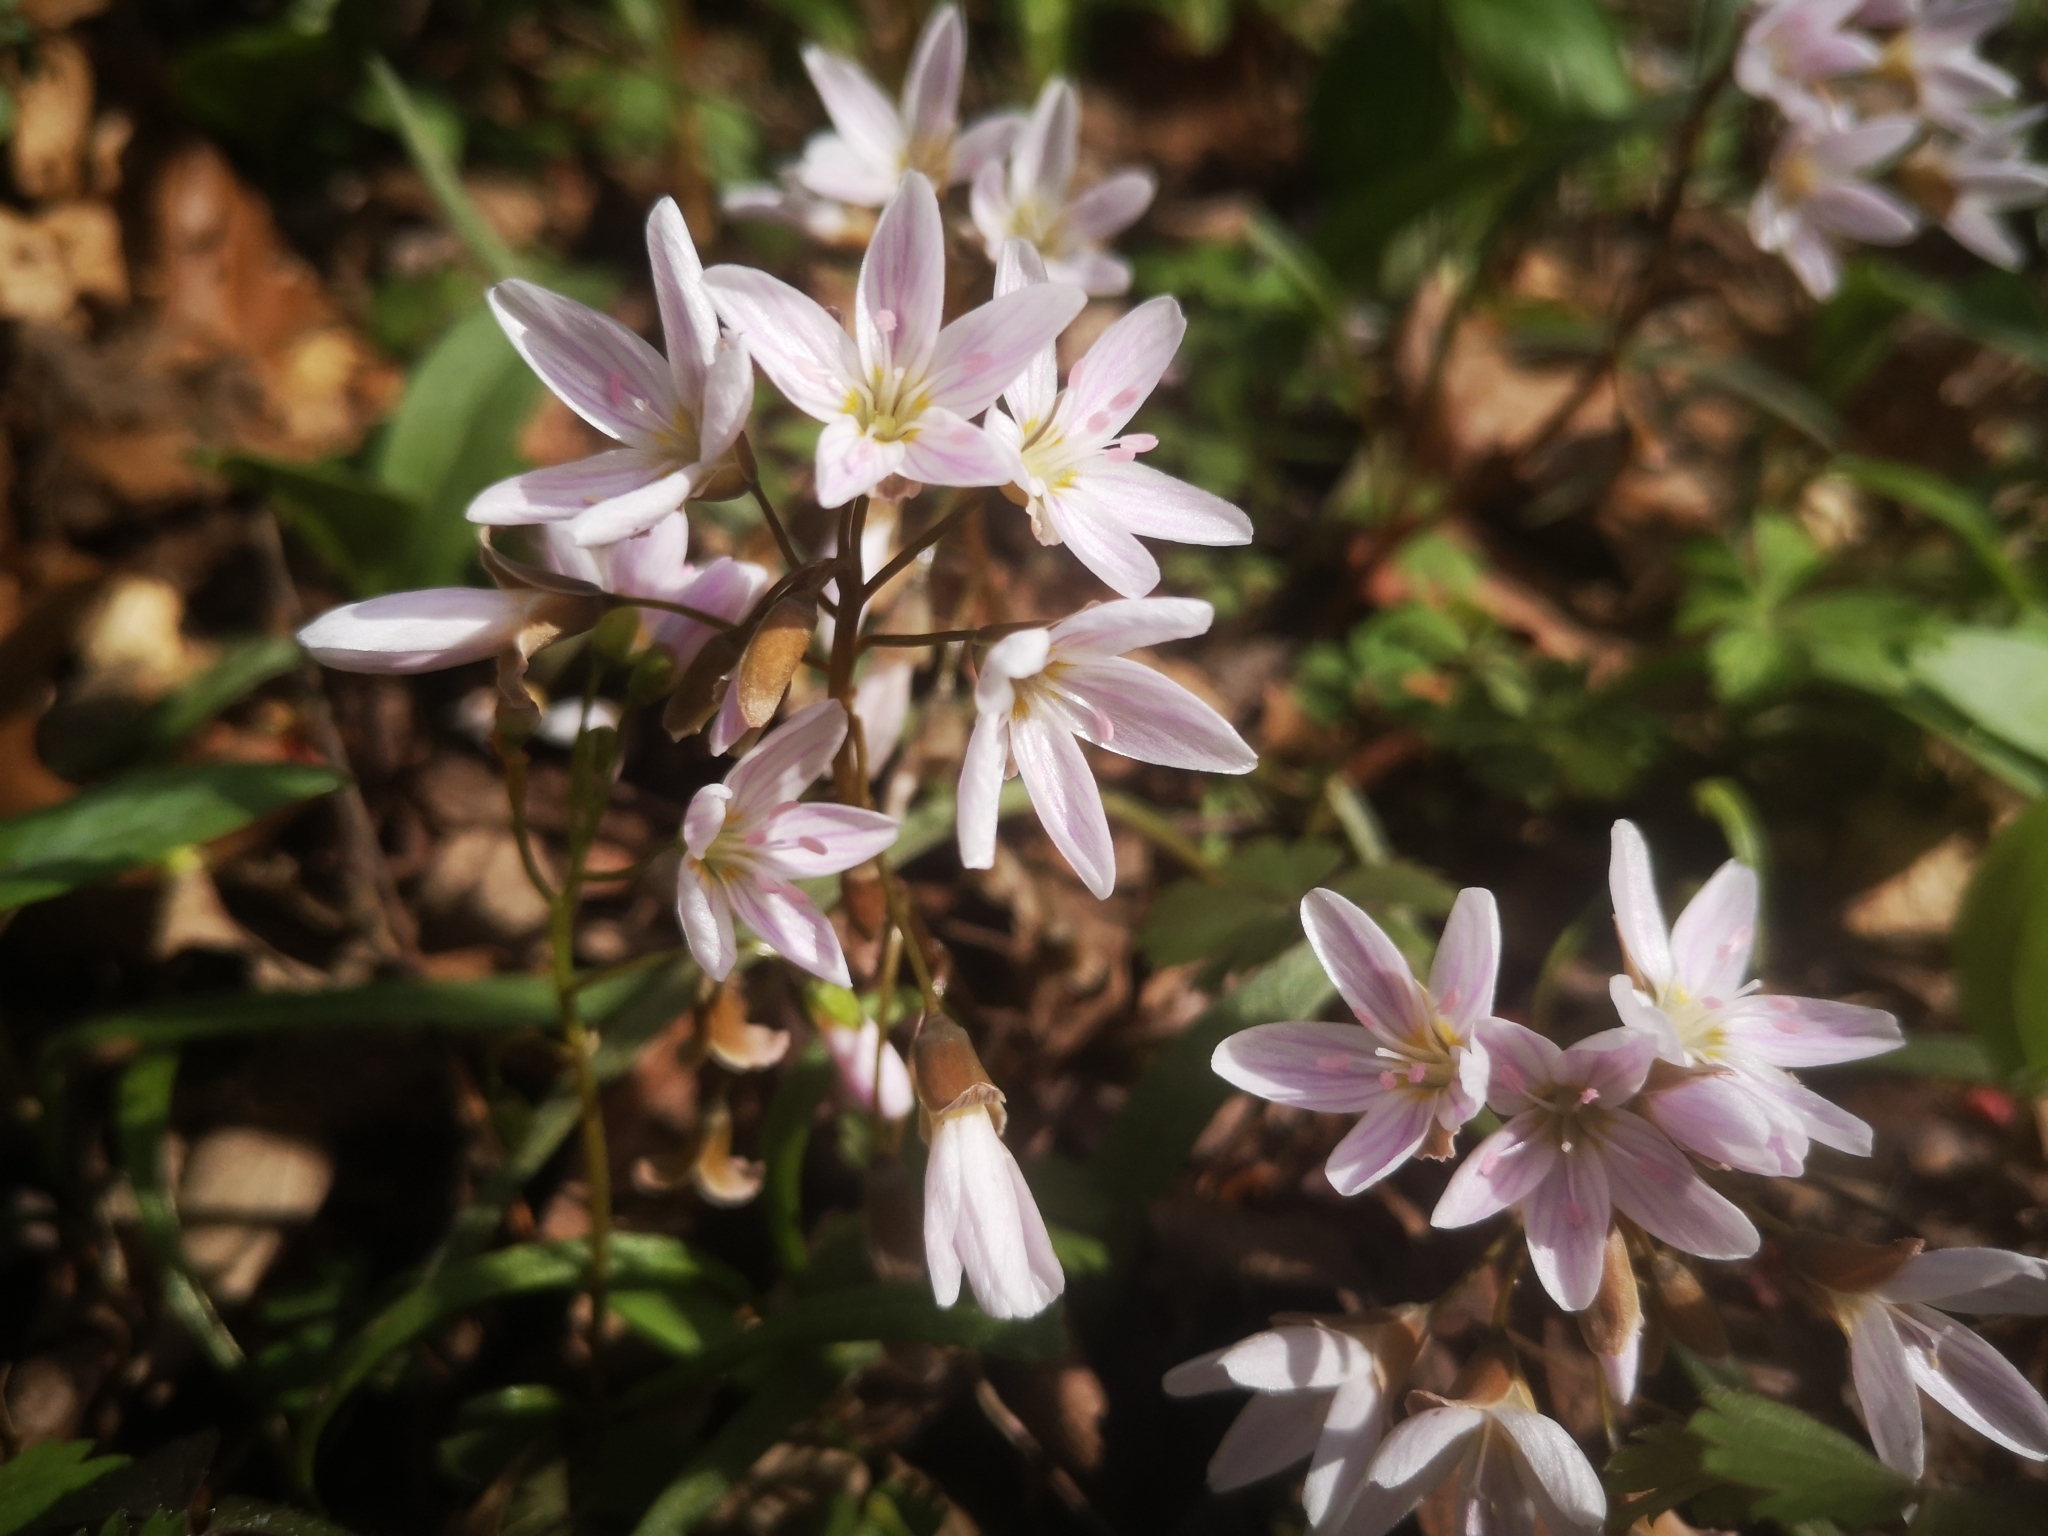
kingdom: Plantae
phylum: Tracheophyta
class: Magnoliopsida
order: Caryophyllales
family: Montiaceae
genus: Claytonia
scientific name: Claytonia virginica
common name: Virginia springbeauty
